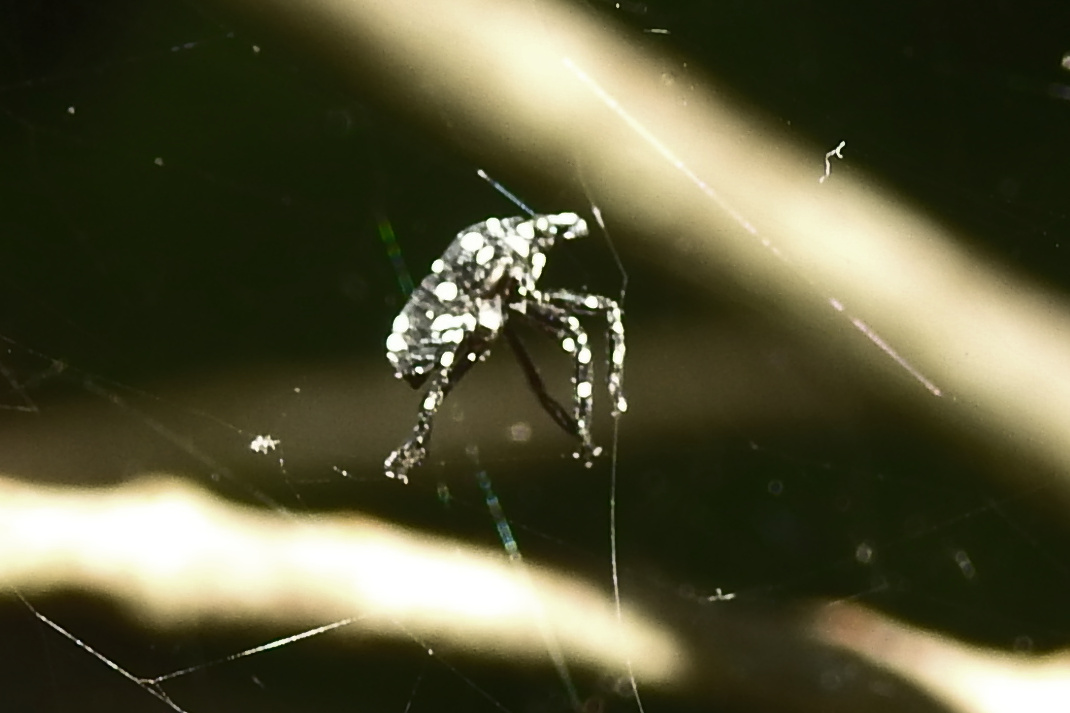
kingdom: Animalia
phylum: Arthropoda
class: Insecta
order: Hemiptera
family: Fulgoridae
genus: Lycorma
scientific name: Lycorma delicatula
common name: Spotted lanternfly
